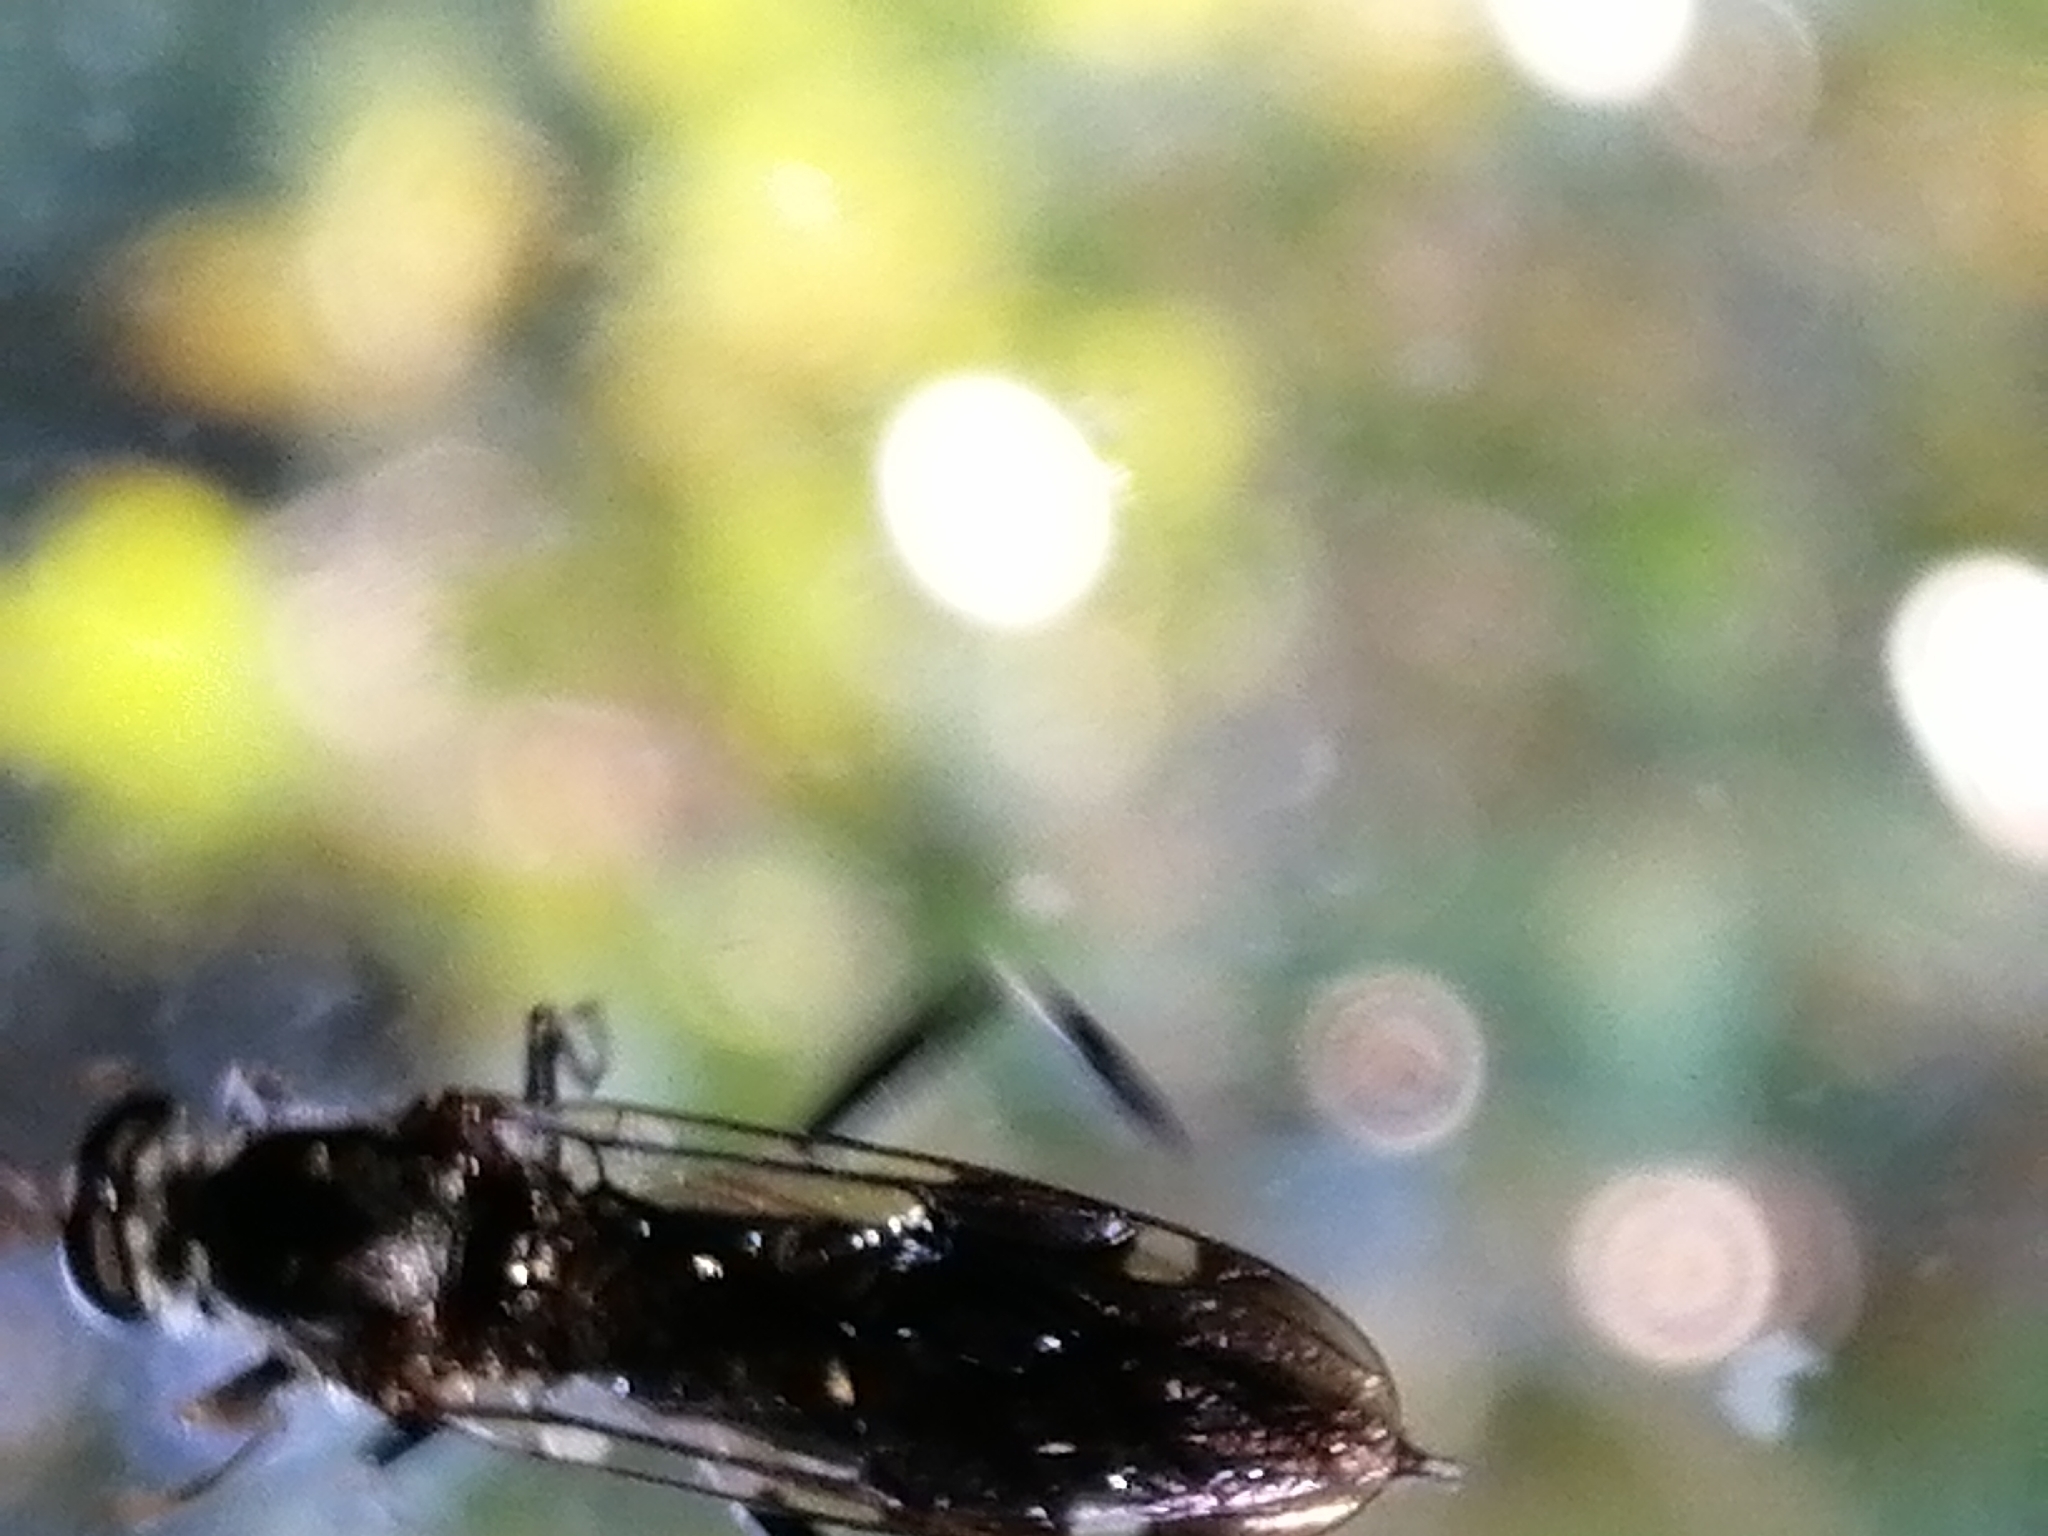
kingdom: Animalia
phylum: Arthropoda
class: Insecta
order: Diptera
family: Stratiomyidae
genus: Exaireta
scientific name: Exaireta spinigera
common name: Blue soldier fly
